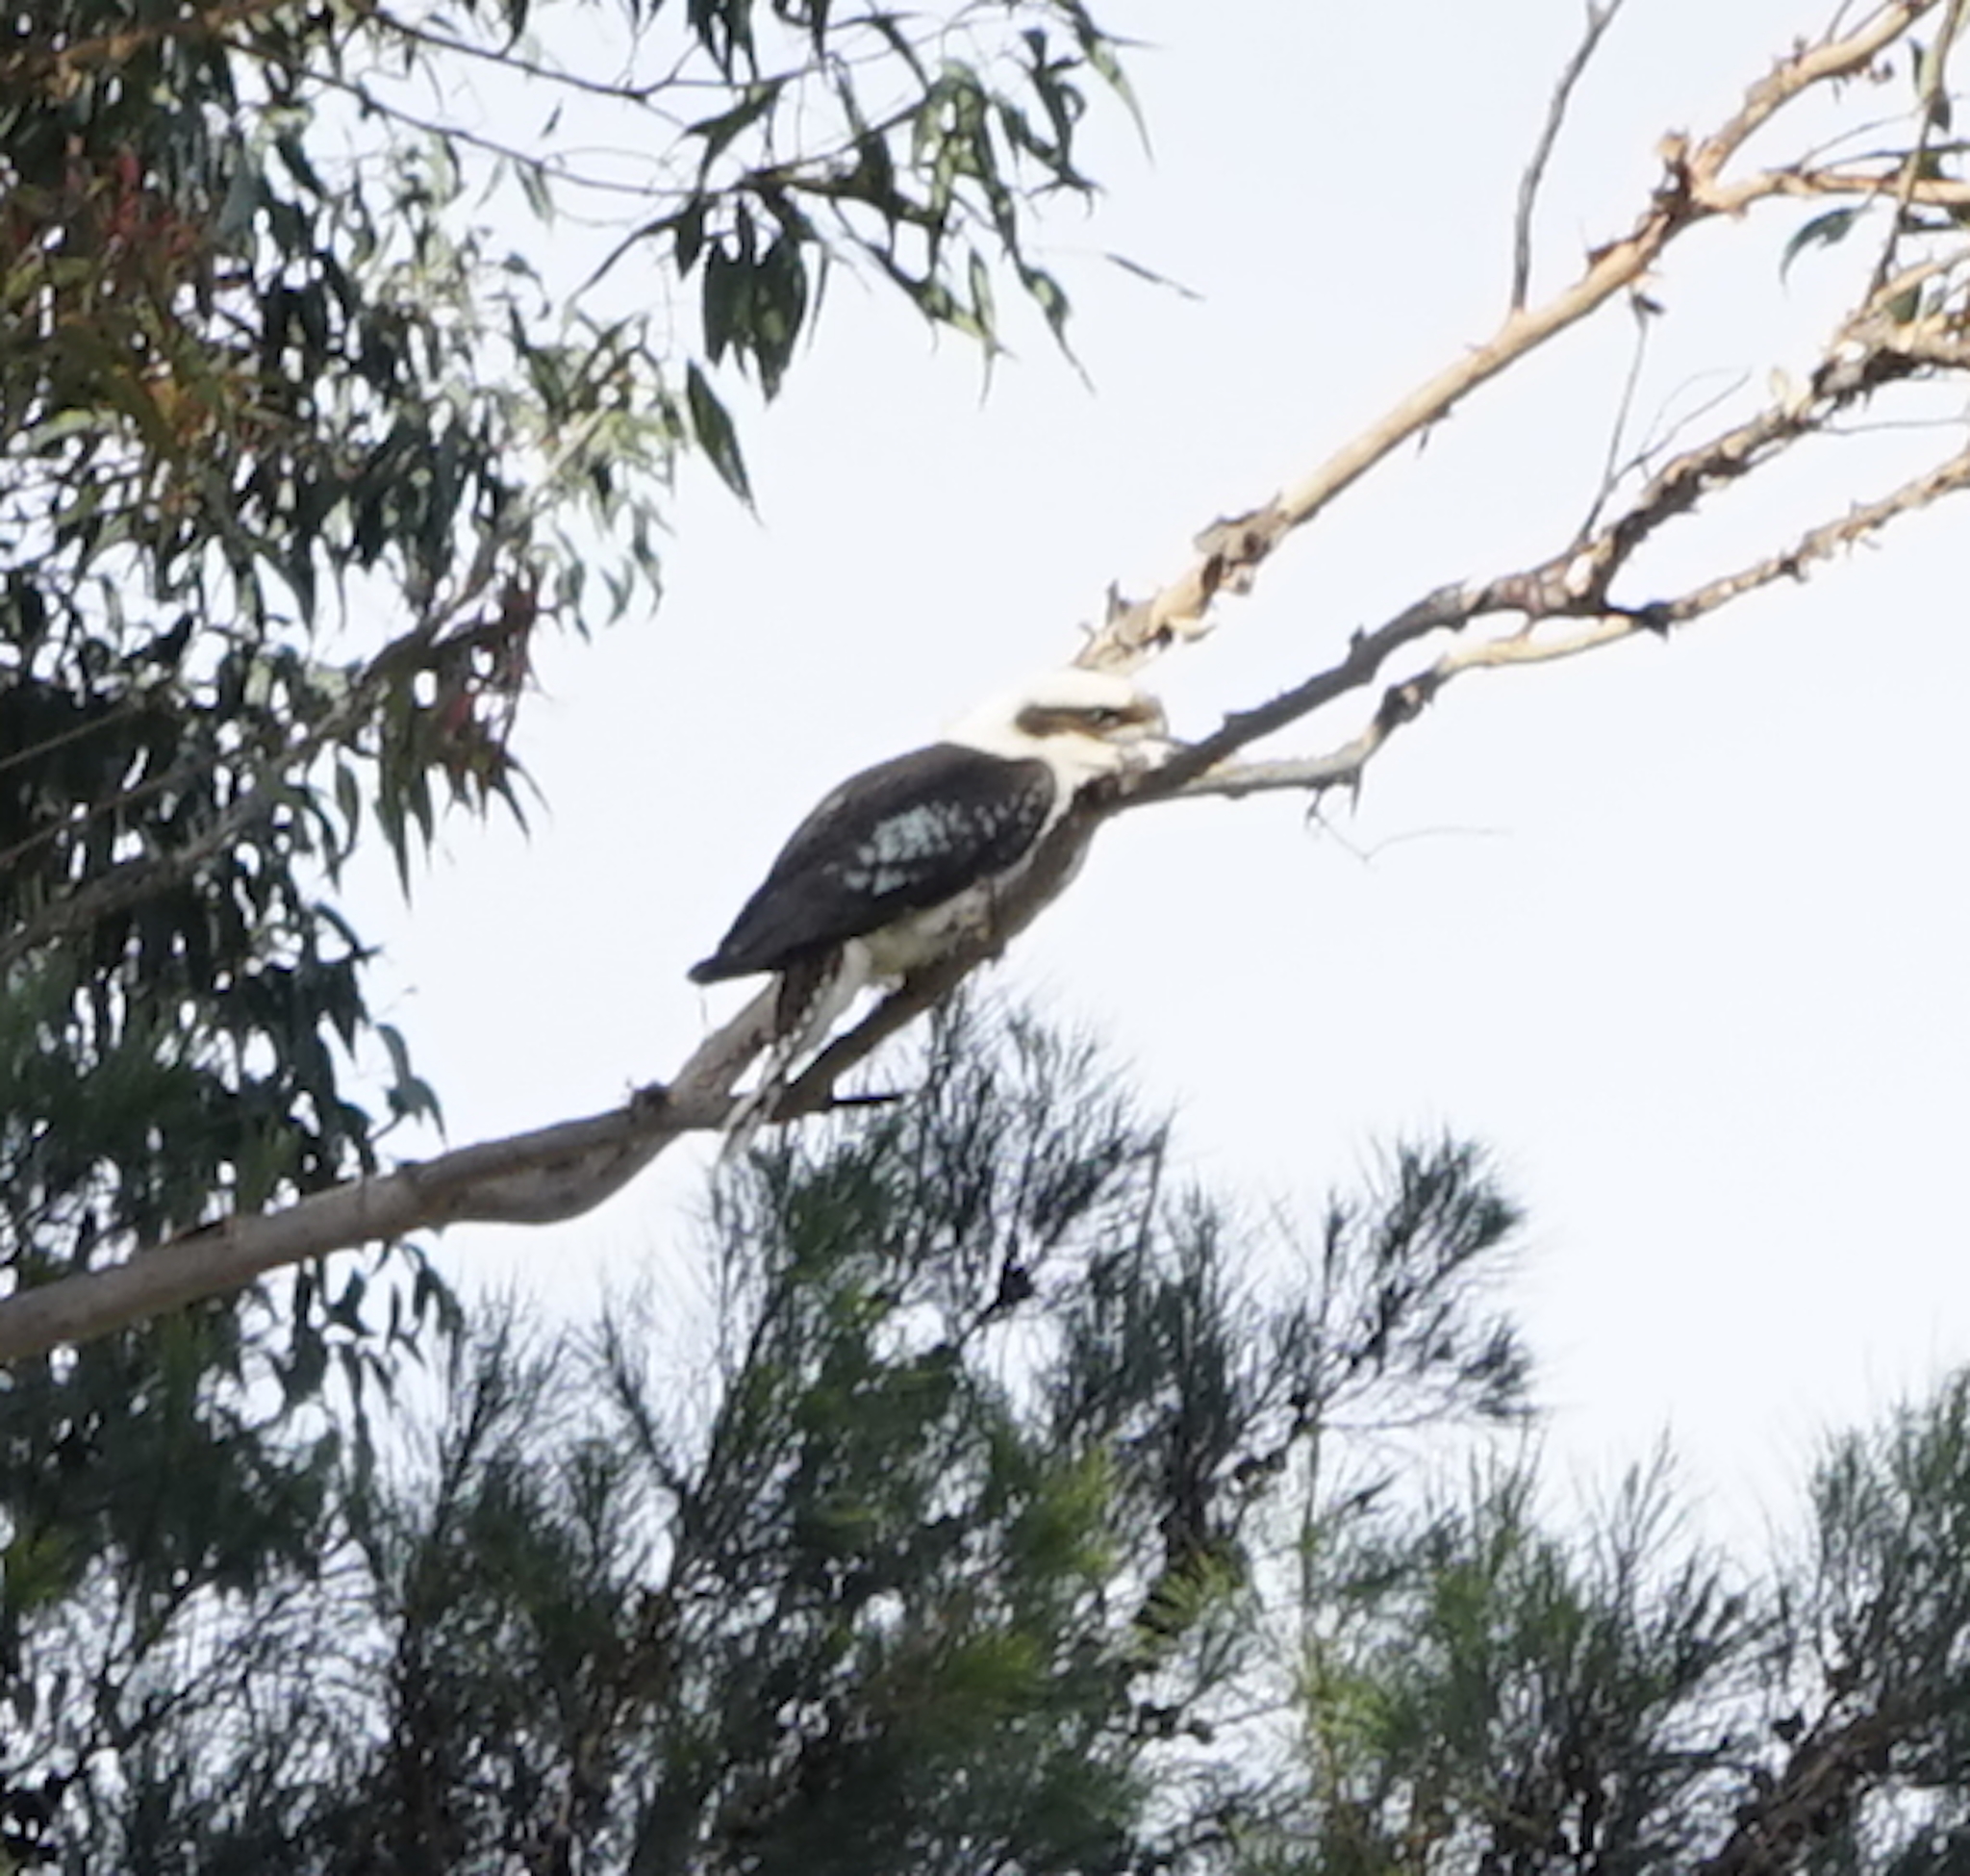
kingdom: Animalia
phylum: Chordata
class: Aves
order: Coraciiformes
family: Alcedinidae
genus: Dacelo
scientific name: Dacelo novaeguineae
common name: Laughing kookaburra
